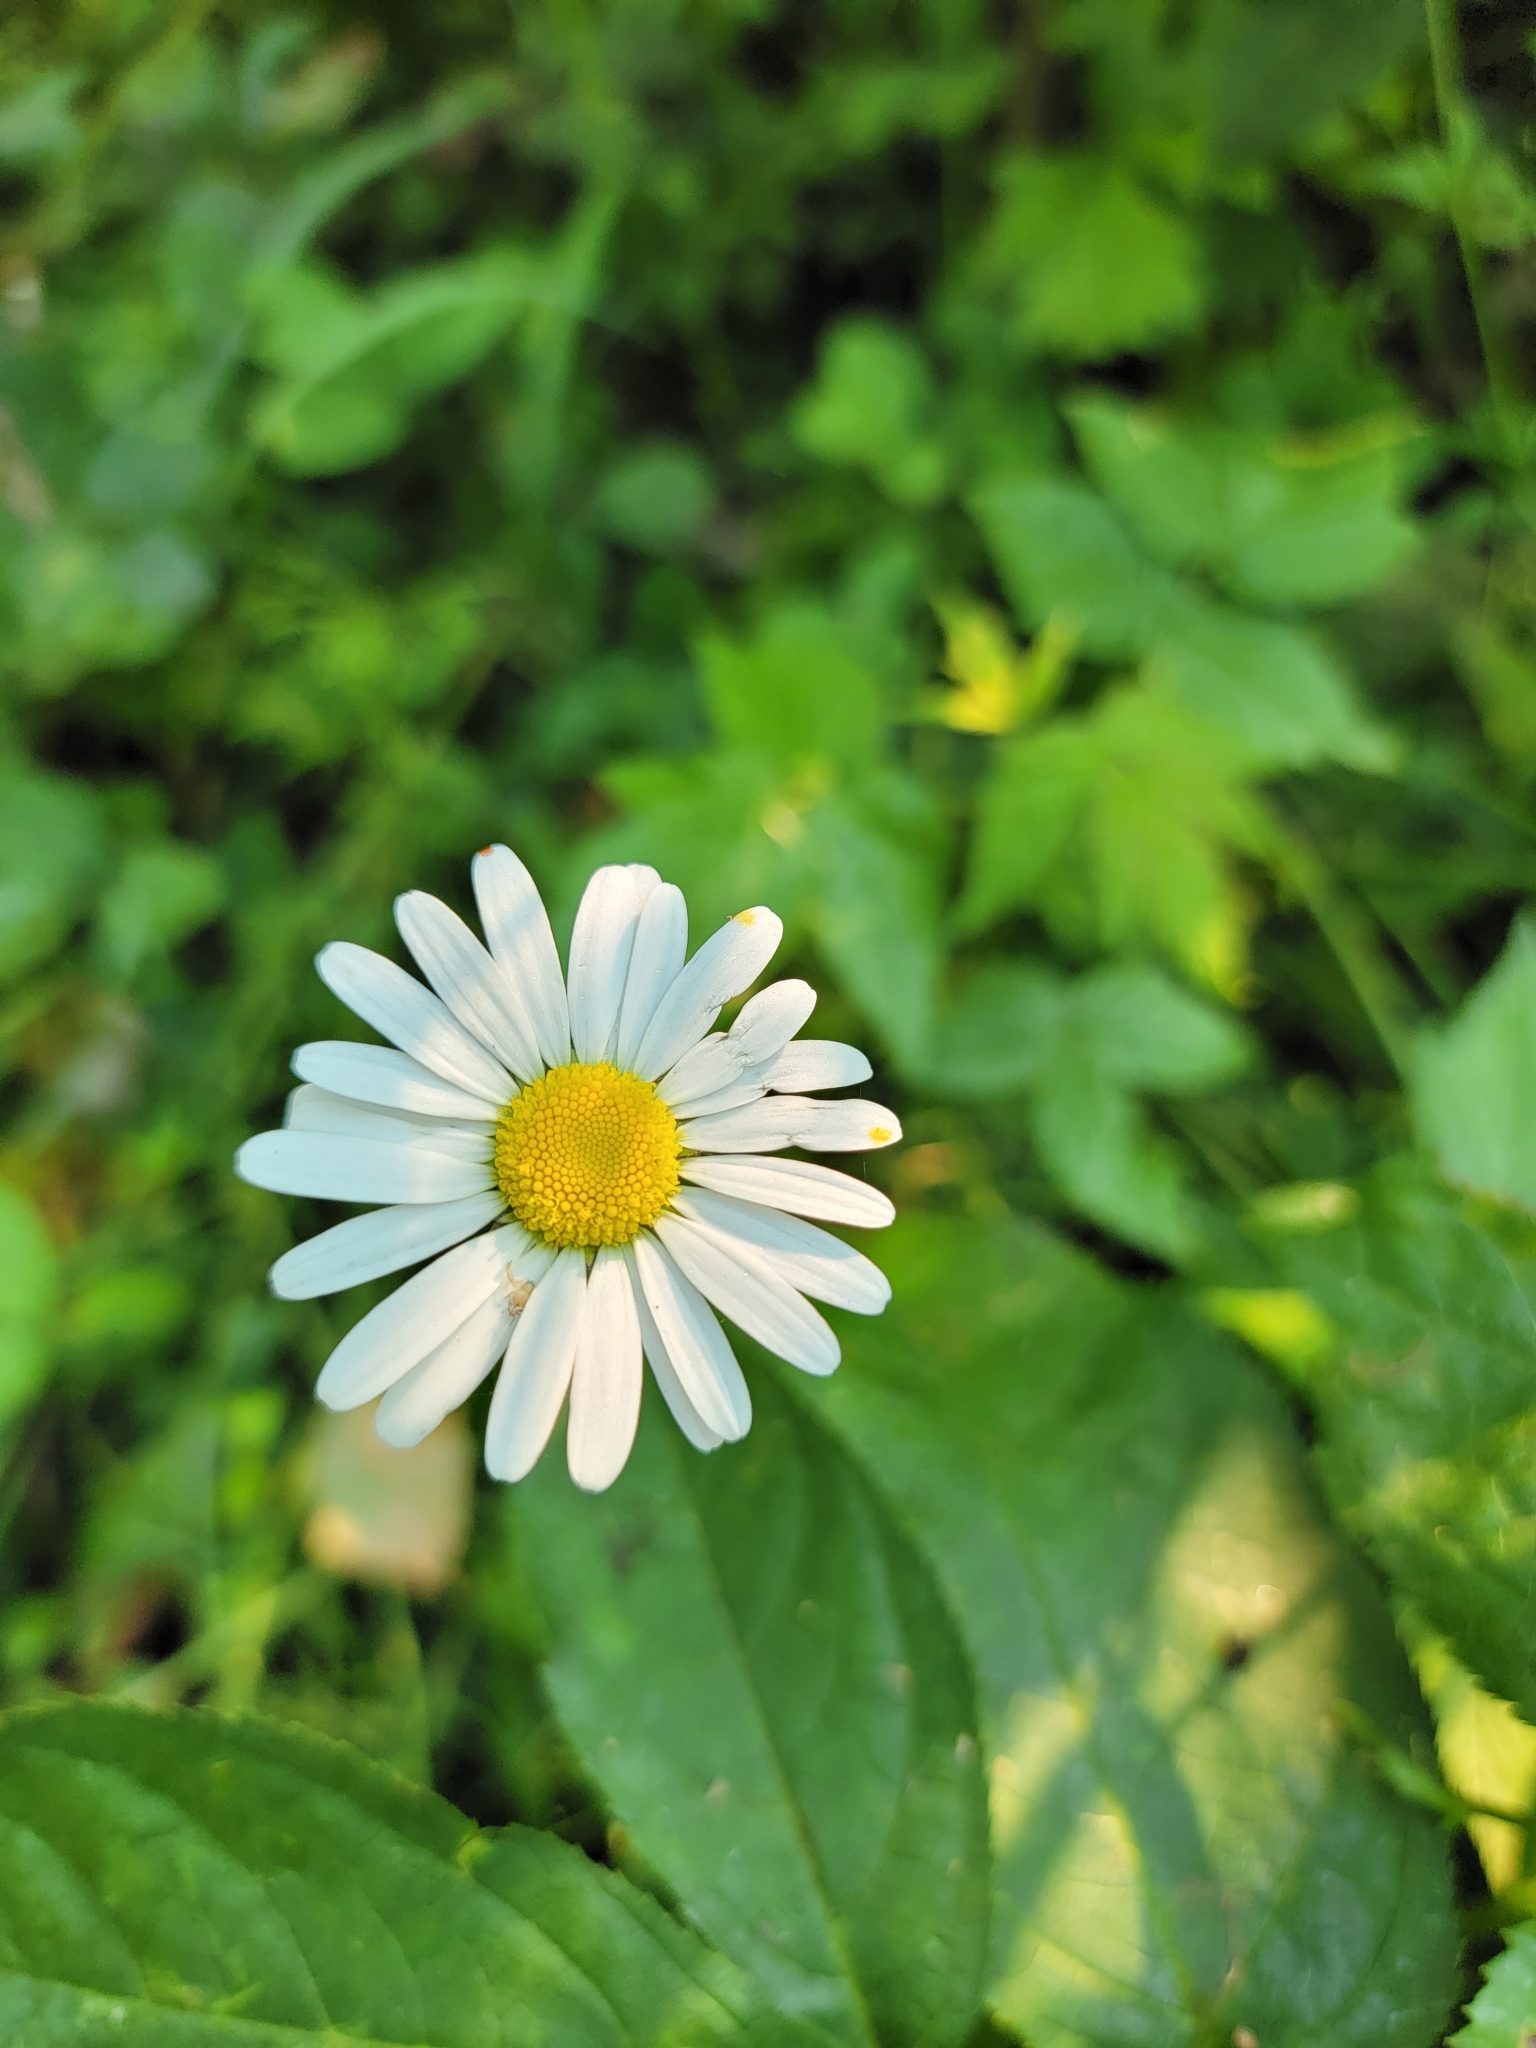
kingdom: Plantae
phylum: Tracheophyta
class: Magnoliopsida
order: Asterales
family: Asteraceae
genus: Leucanthemum
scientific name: Leucanthemum vulgare
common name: Oxeye daisy
